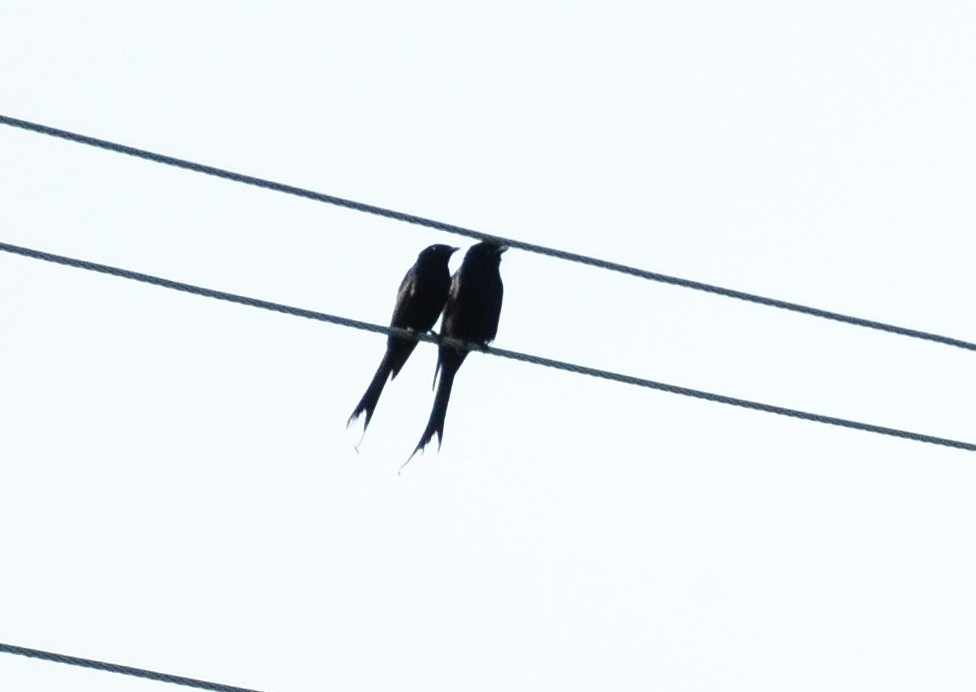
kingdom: Animalia
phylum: Chordata
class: Aves
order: Passeriformes
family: Dicruridae
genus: Dicrurus
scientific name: Dicrurus macrocercus
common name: Black drongo
